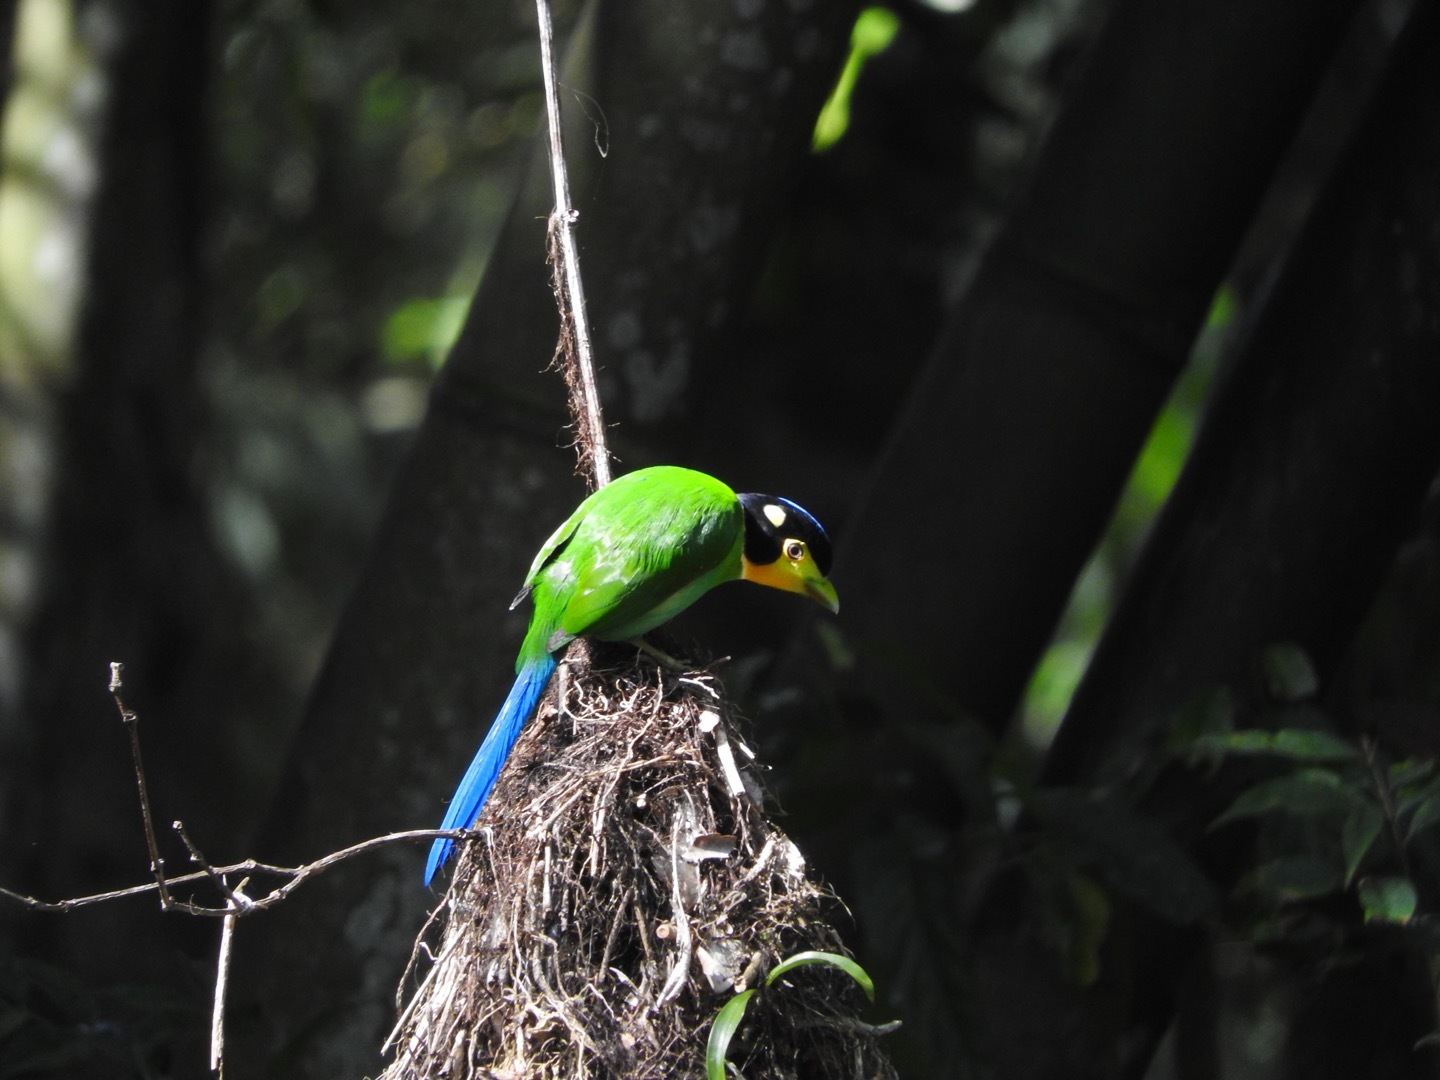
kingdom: Animalia
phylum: Chordata
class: Aves
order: Passeriformes
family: Eurylaimidae
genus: Psarisomus
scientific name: Psarisomus dalhousiae
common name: Long-tailed broadbill
